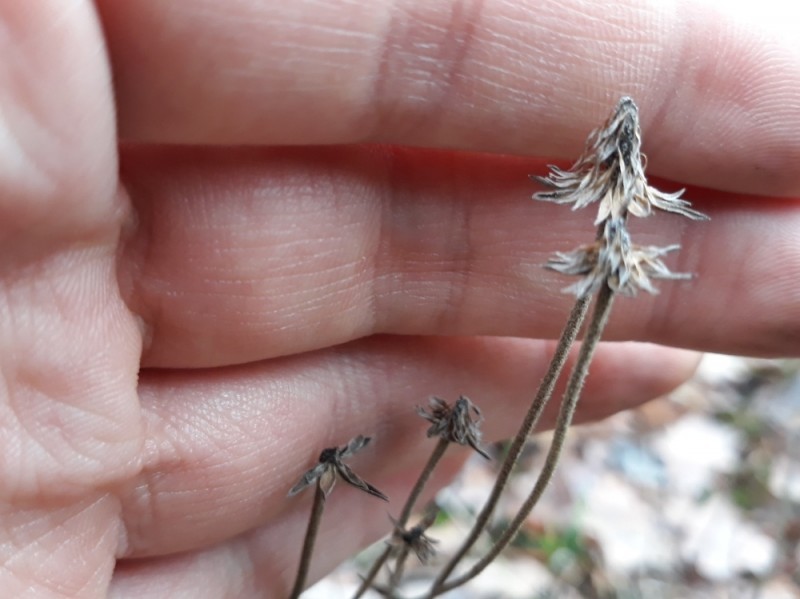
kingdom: Plantae
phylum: Tracheophyta
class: Magnoliopsida
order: Dipsacales
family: Caprifoliaceae
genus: Succisa
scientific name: Succisa pratensis
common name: Devil's-bit
